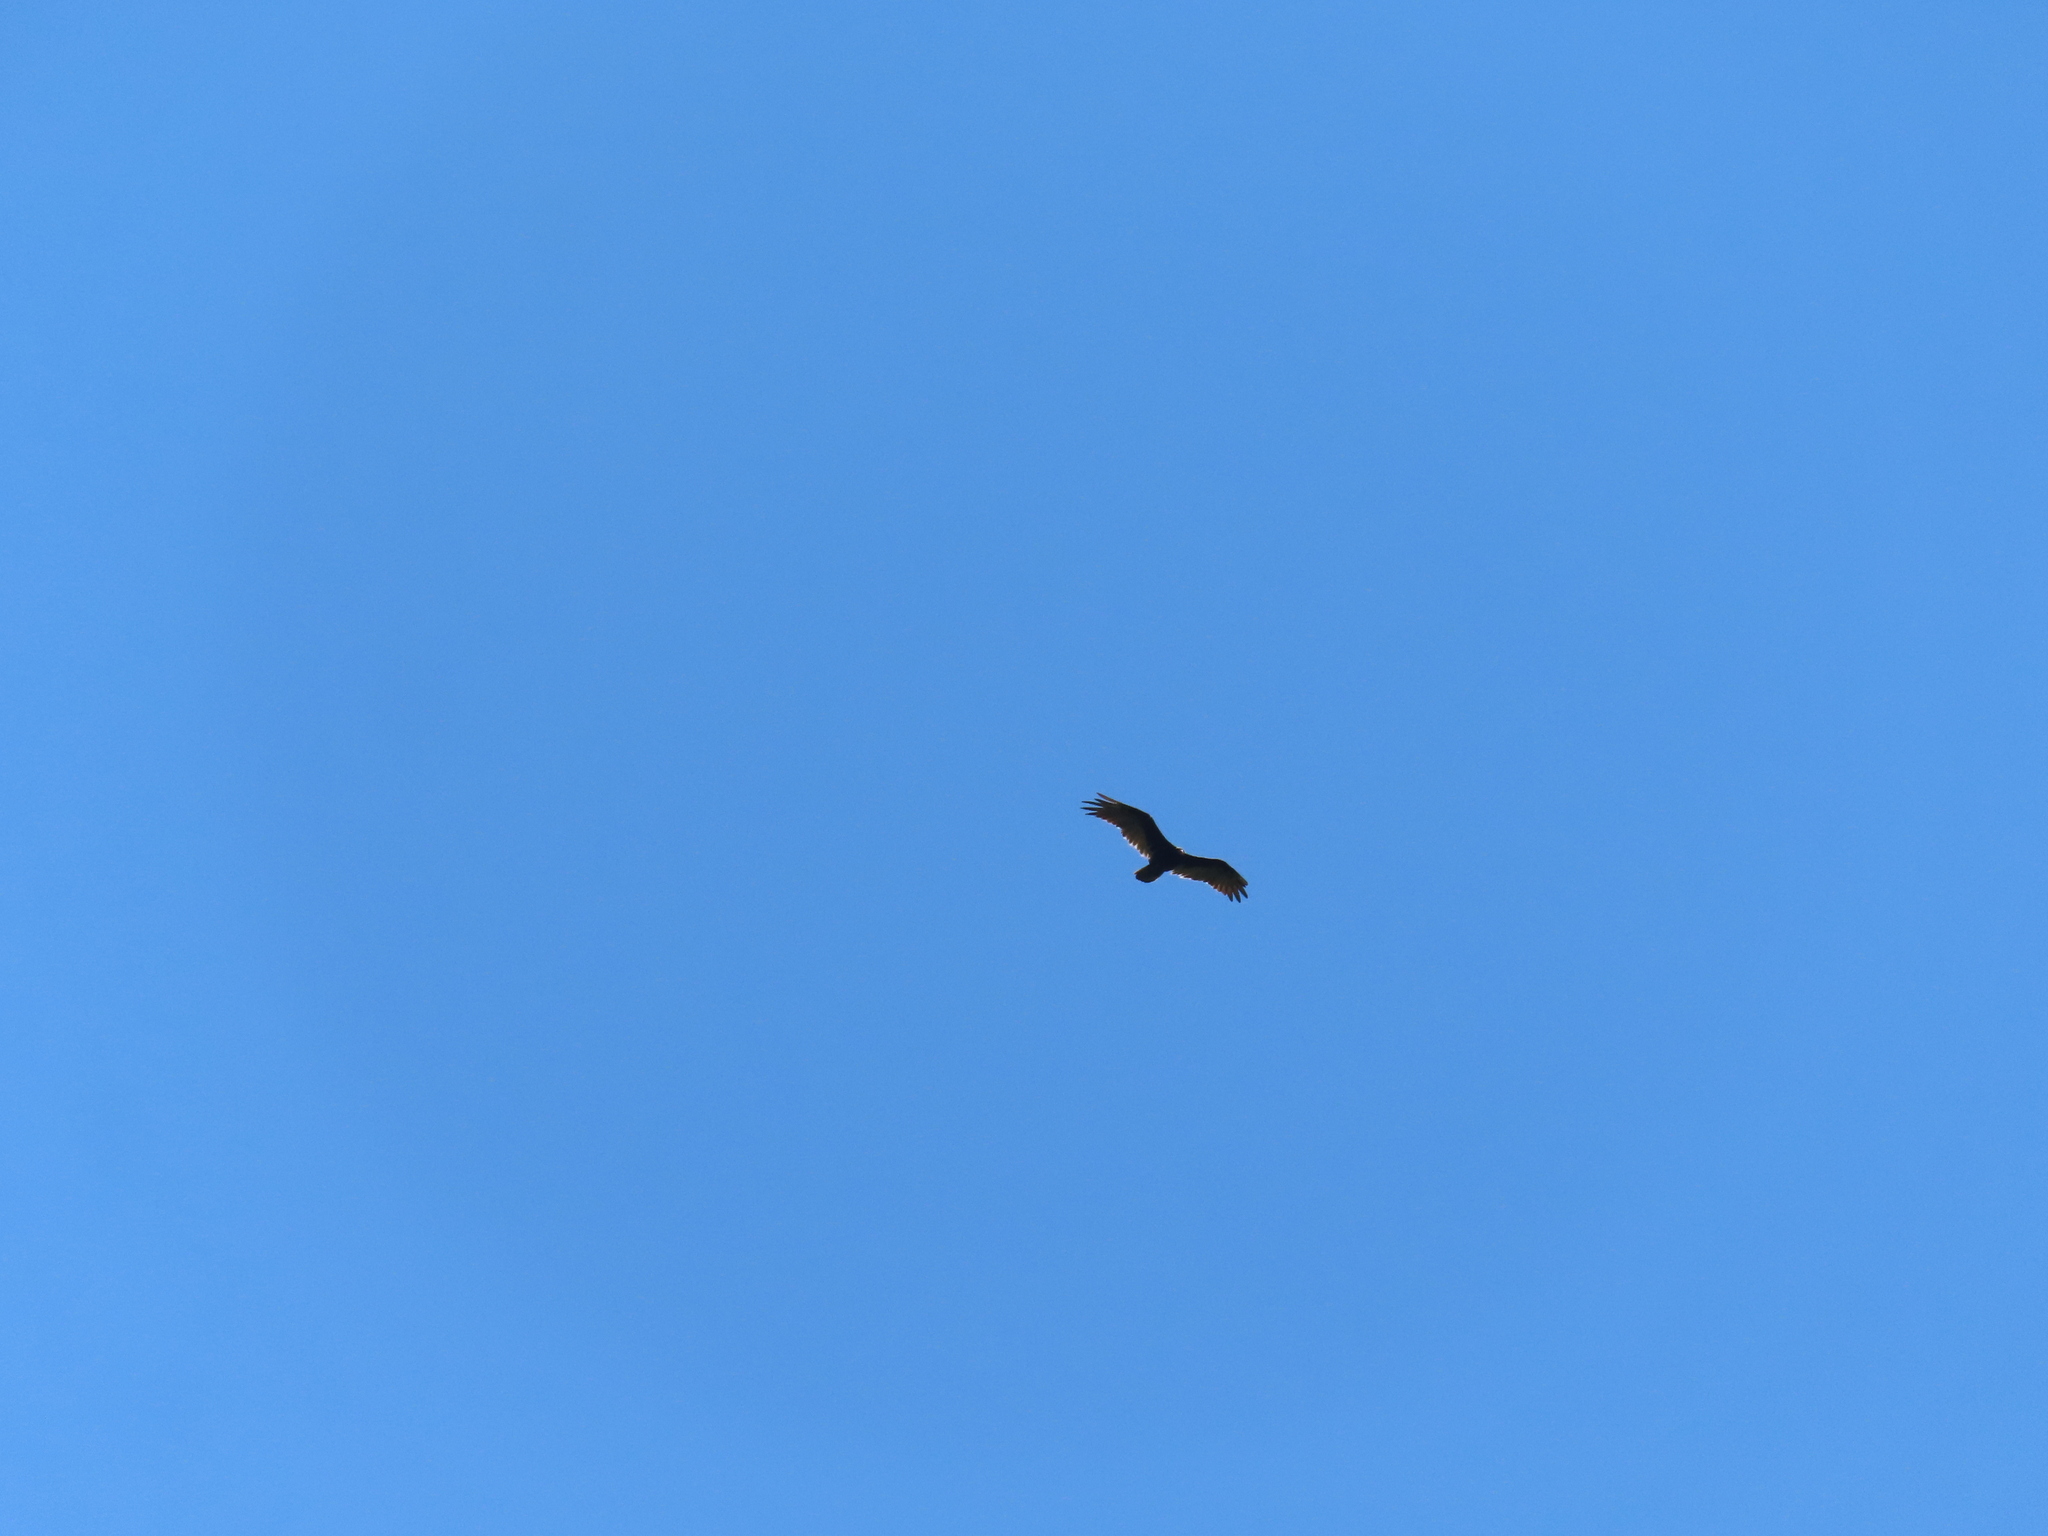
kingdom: Animalia
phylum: Chordata
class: Aves
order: Accipitriformes
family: Cathartidae
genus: Cathartes
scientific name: Cathartes aura
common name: Turkey vulture
